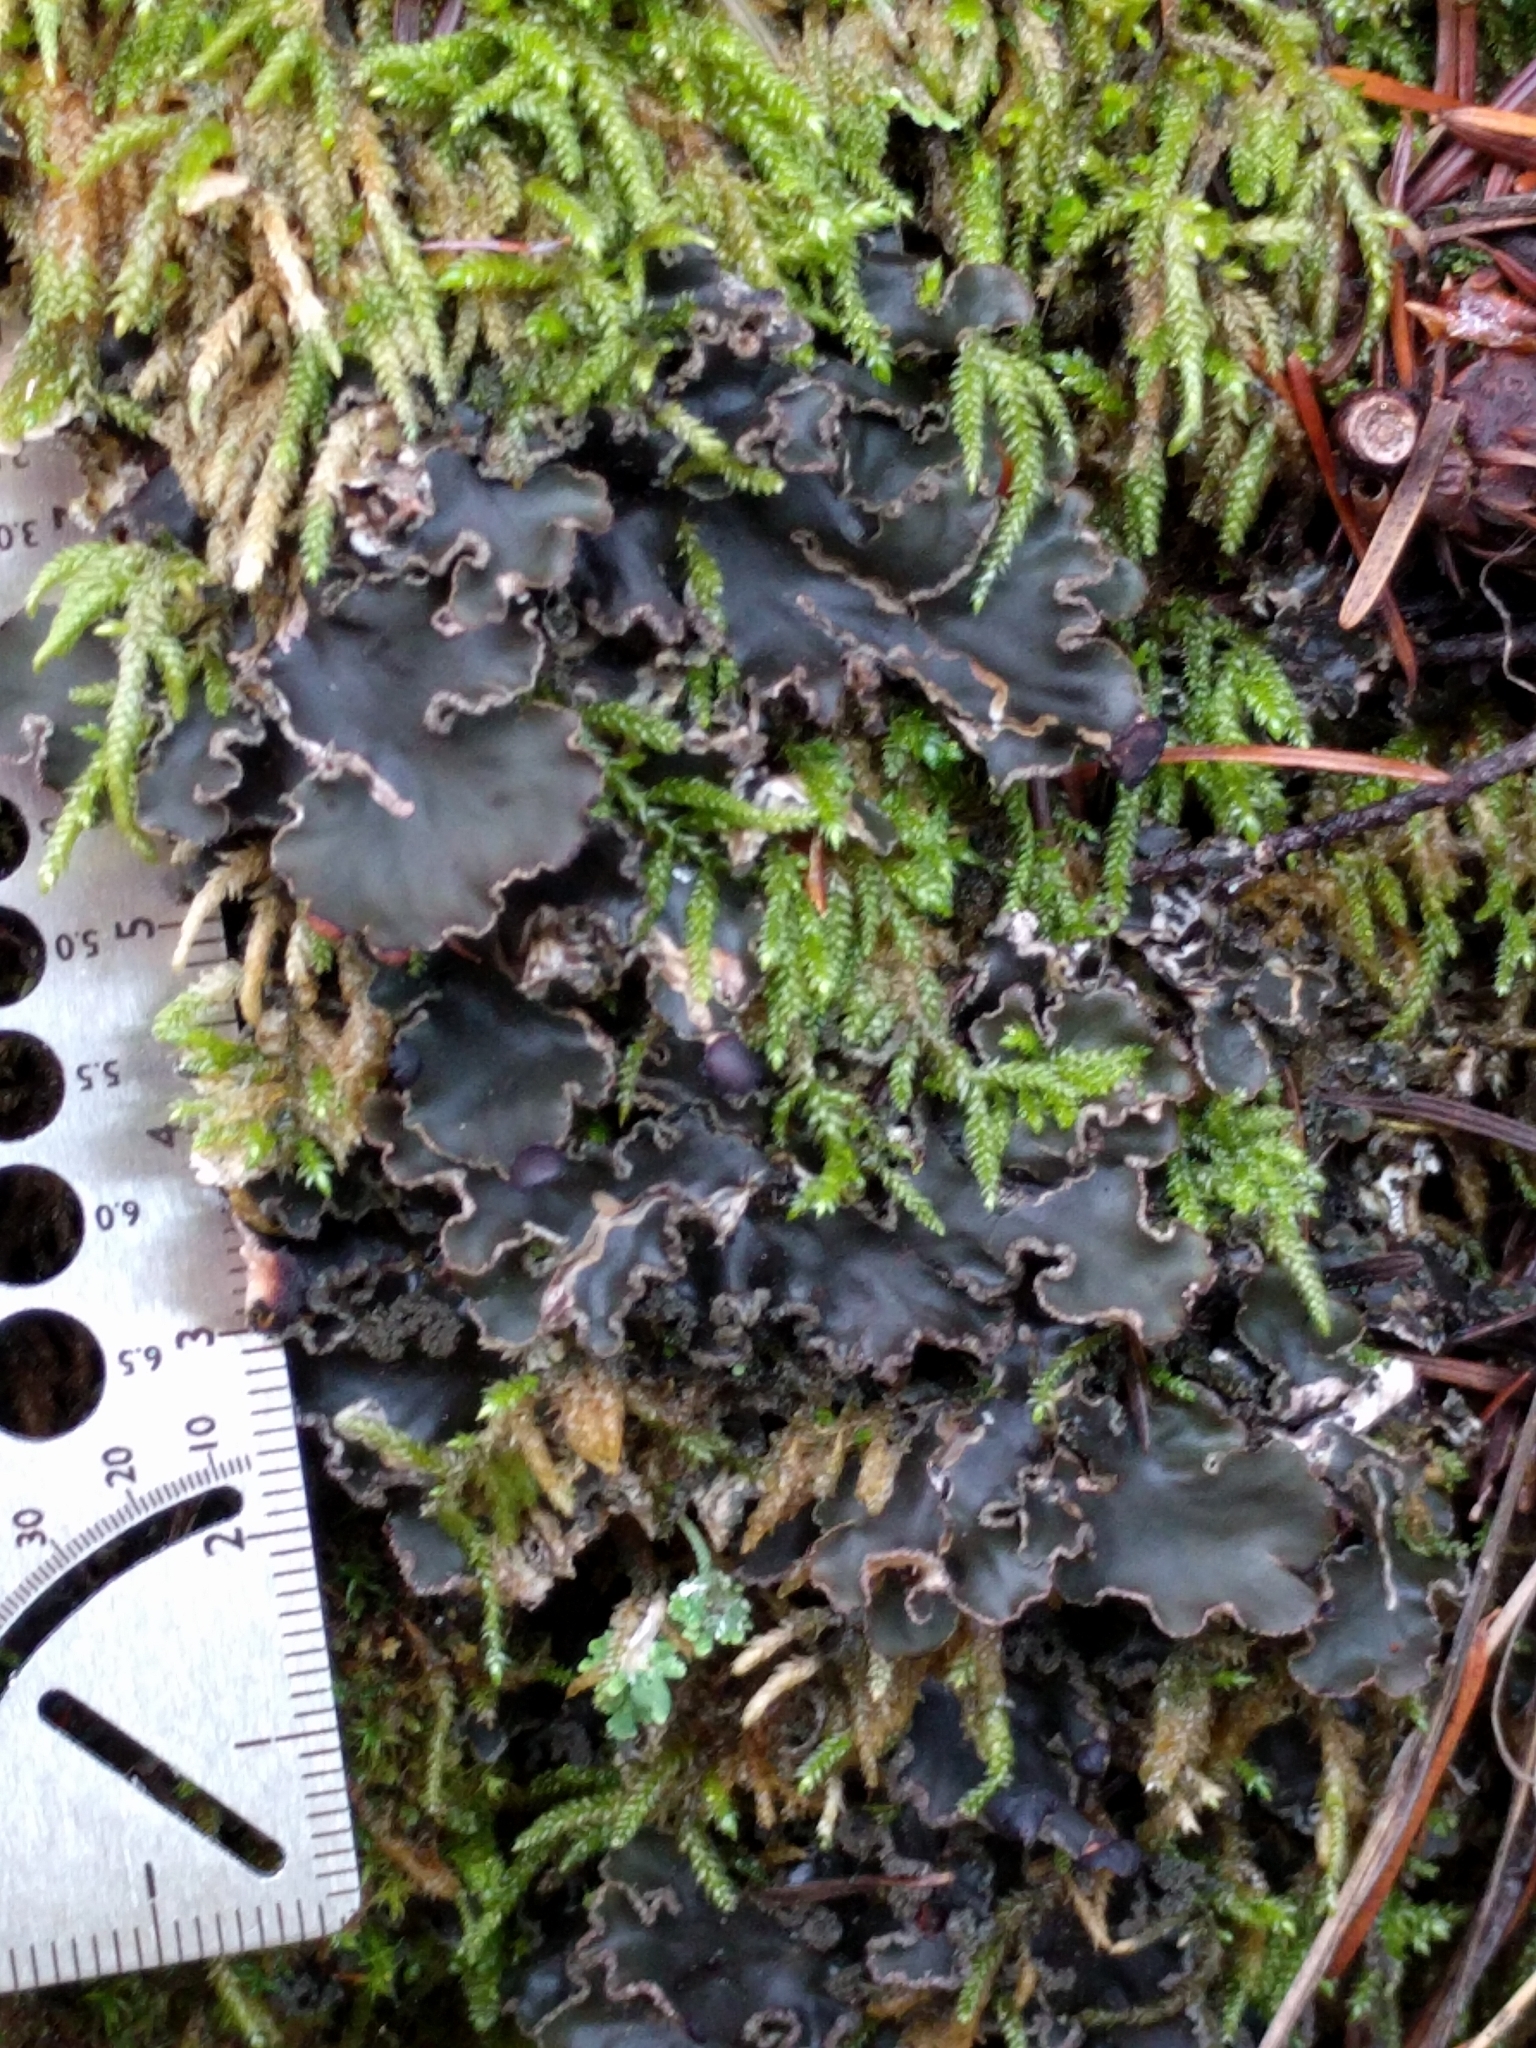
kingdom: Fungi
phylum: Ascomycota
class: Lecanoromycetes
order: Peltigerales
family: Peltigeraceae
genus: Peltigera
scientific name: Peltigera collina
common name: Gritty tree pelt lichen
